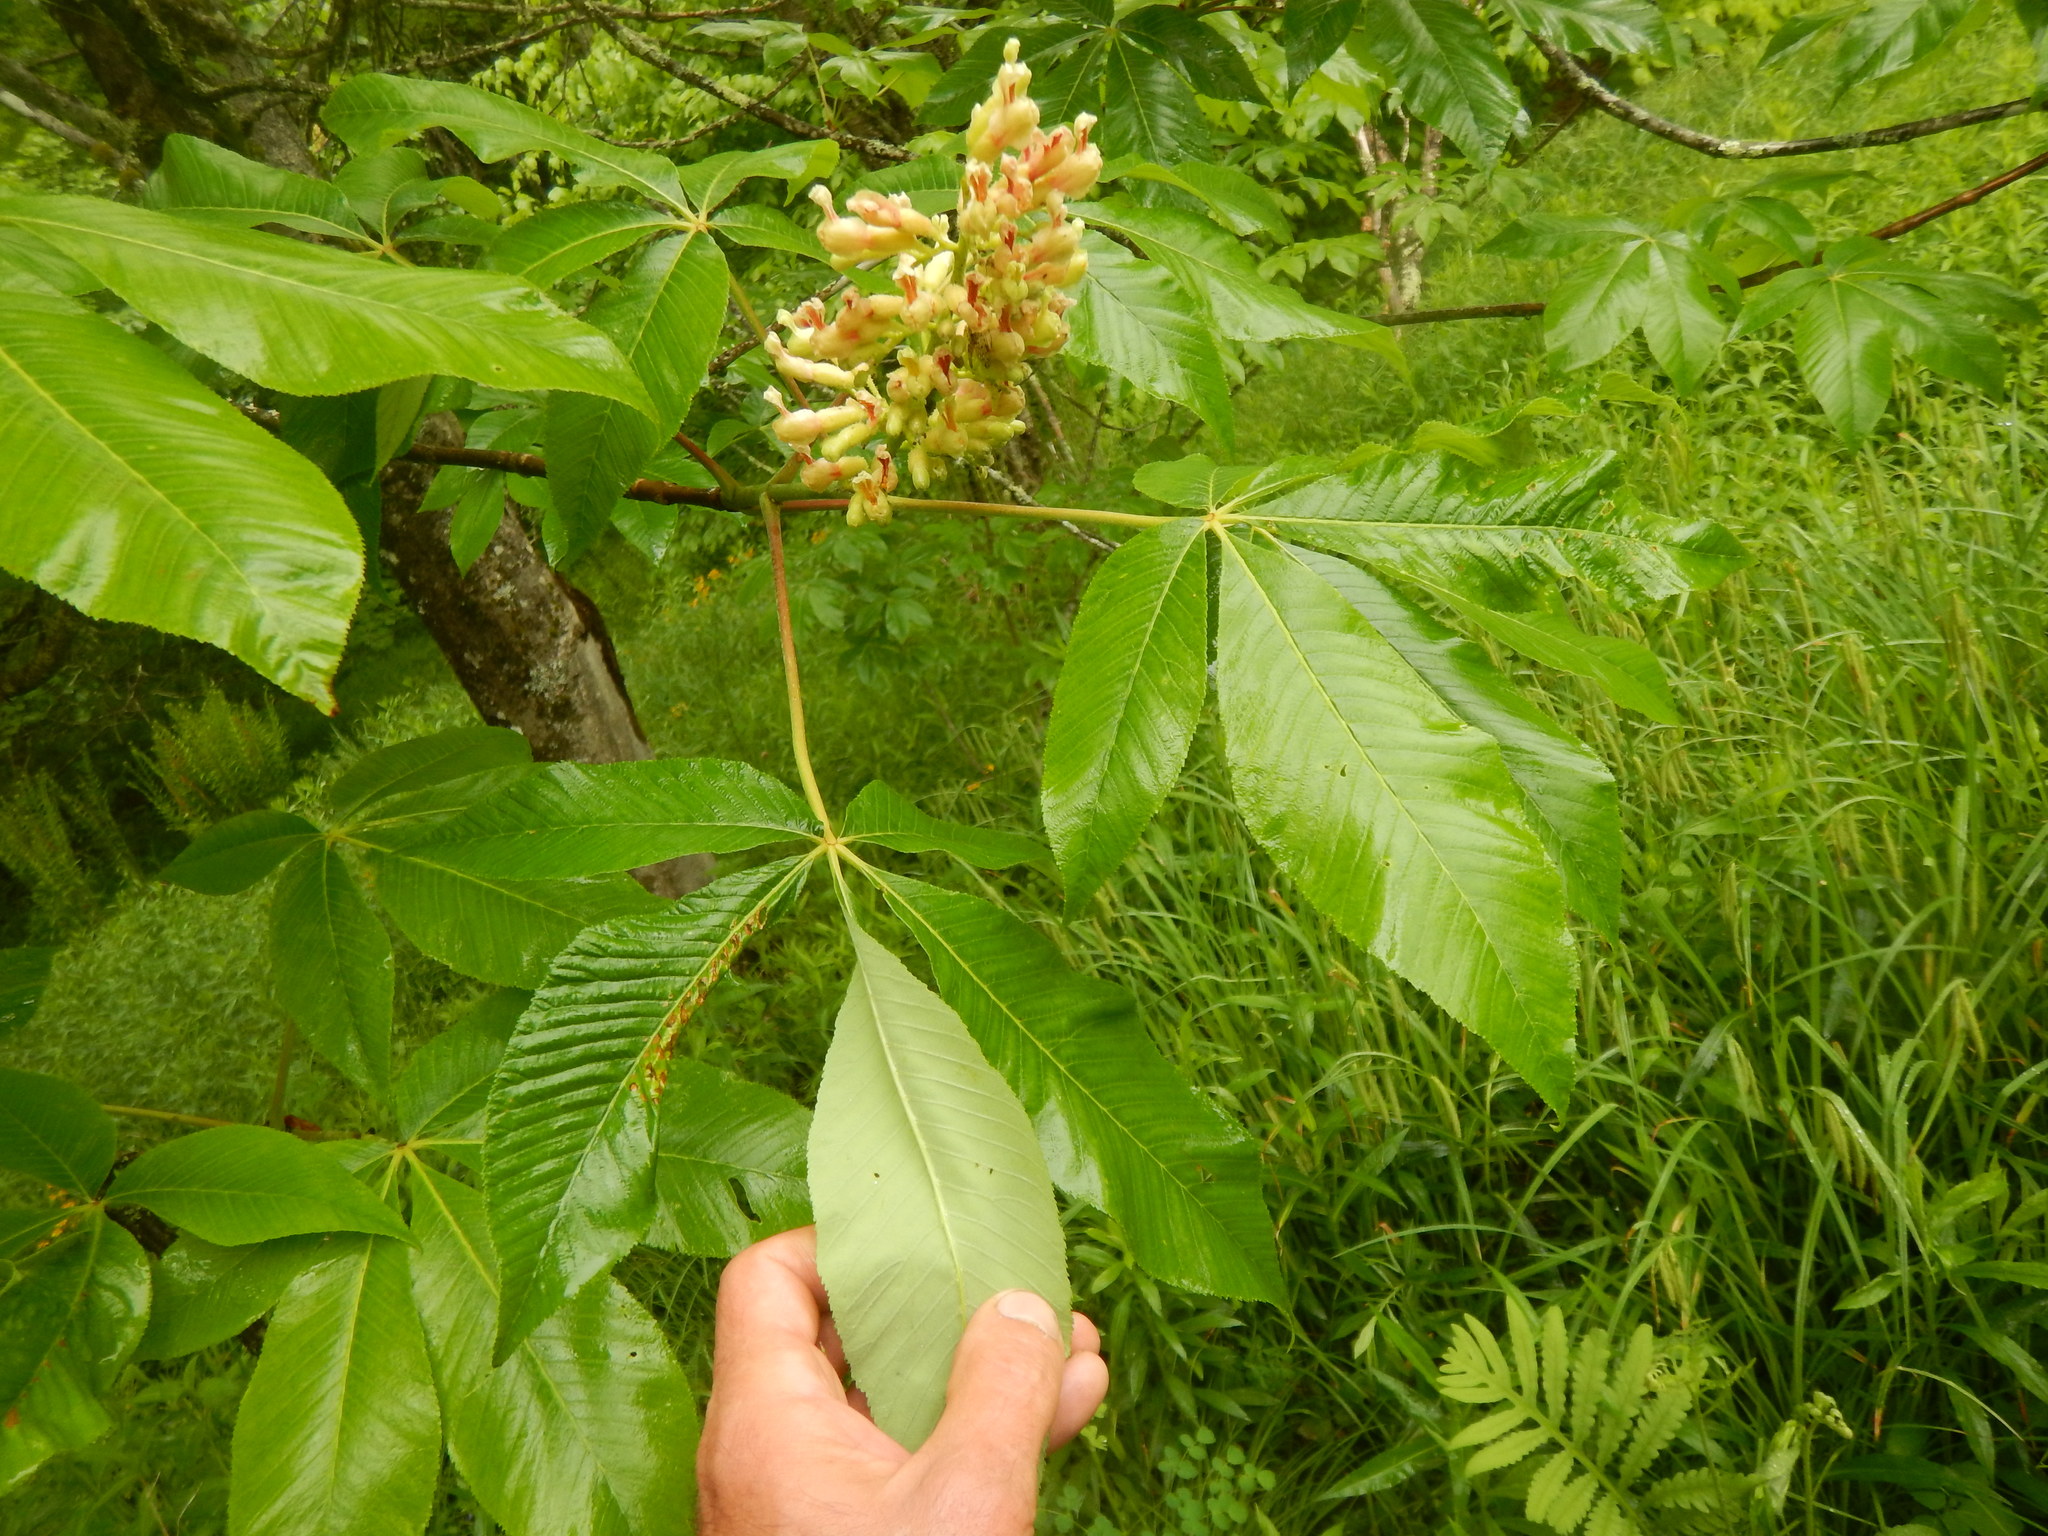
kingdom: Plantae
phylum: Tracheophyta
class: Magnoliopsida
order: Sapindales
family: Sapindaceae
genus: Aesculus
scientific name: Aesculus flava
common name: Yellow buckeye
